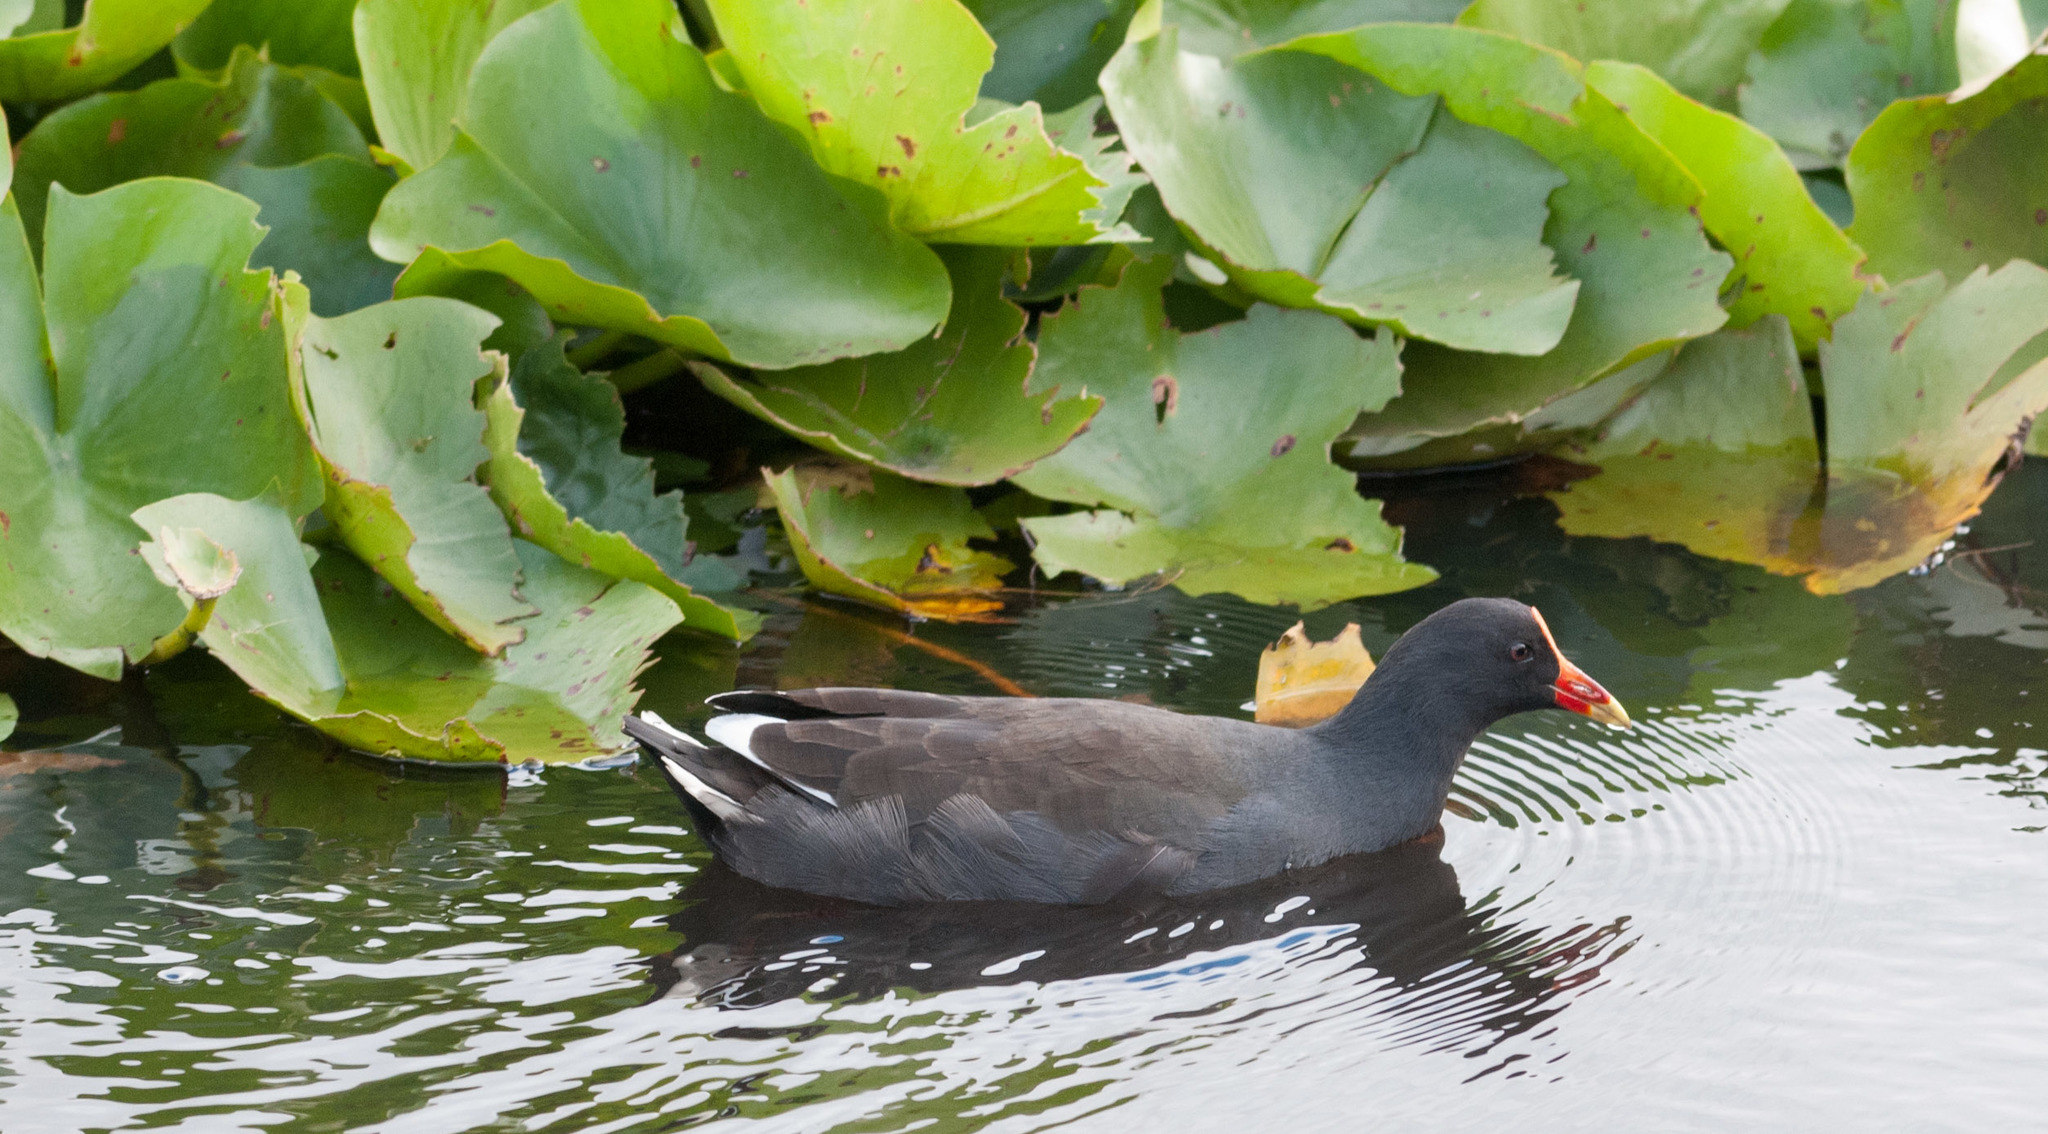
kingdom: Animalia
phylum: Chordata
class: Aves
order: Gruiformes
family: Rallidae
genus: Gallinula
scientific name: Gallinula tenebrosa
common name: Dusky moorhen
